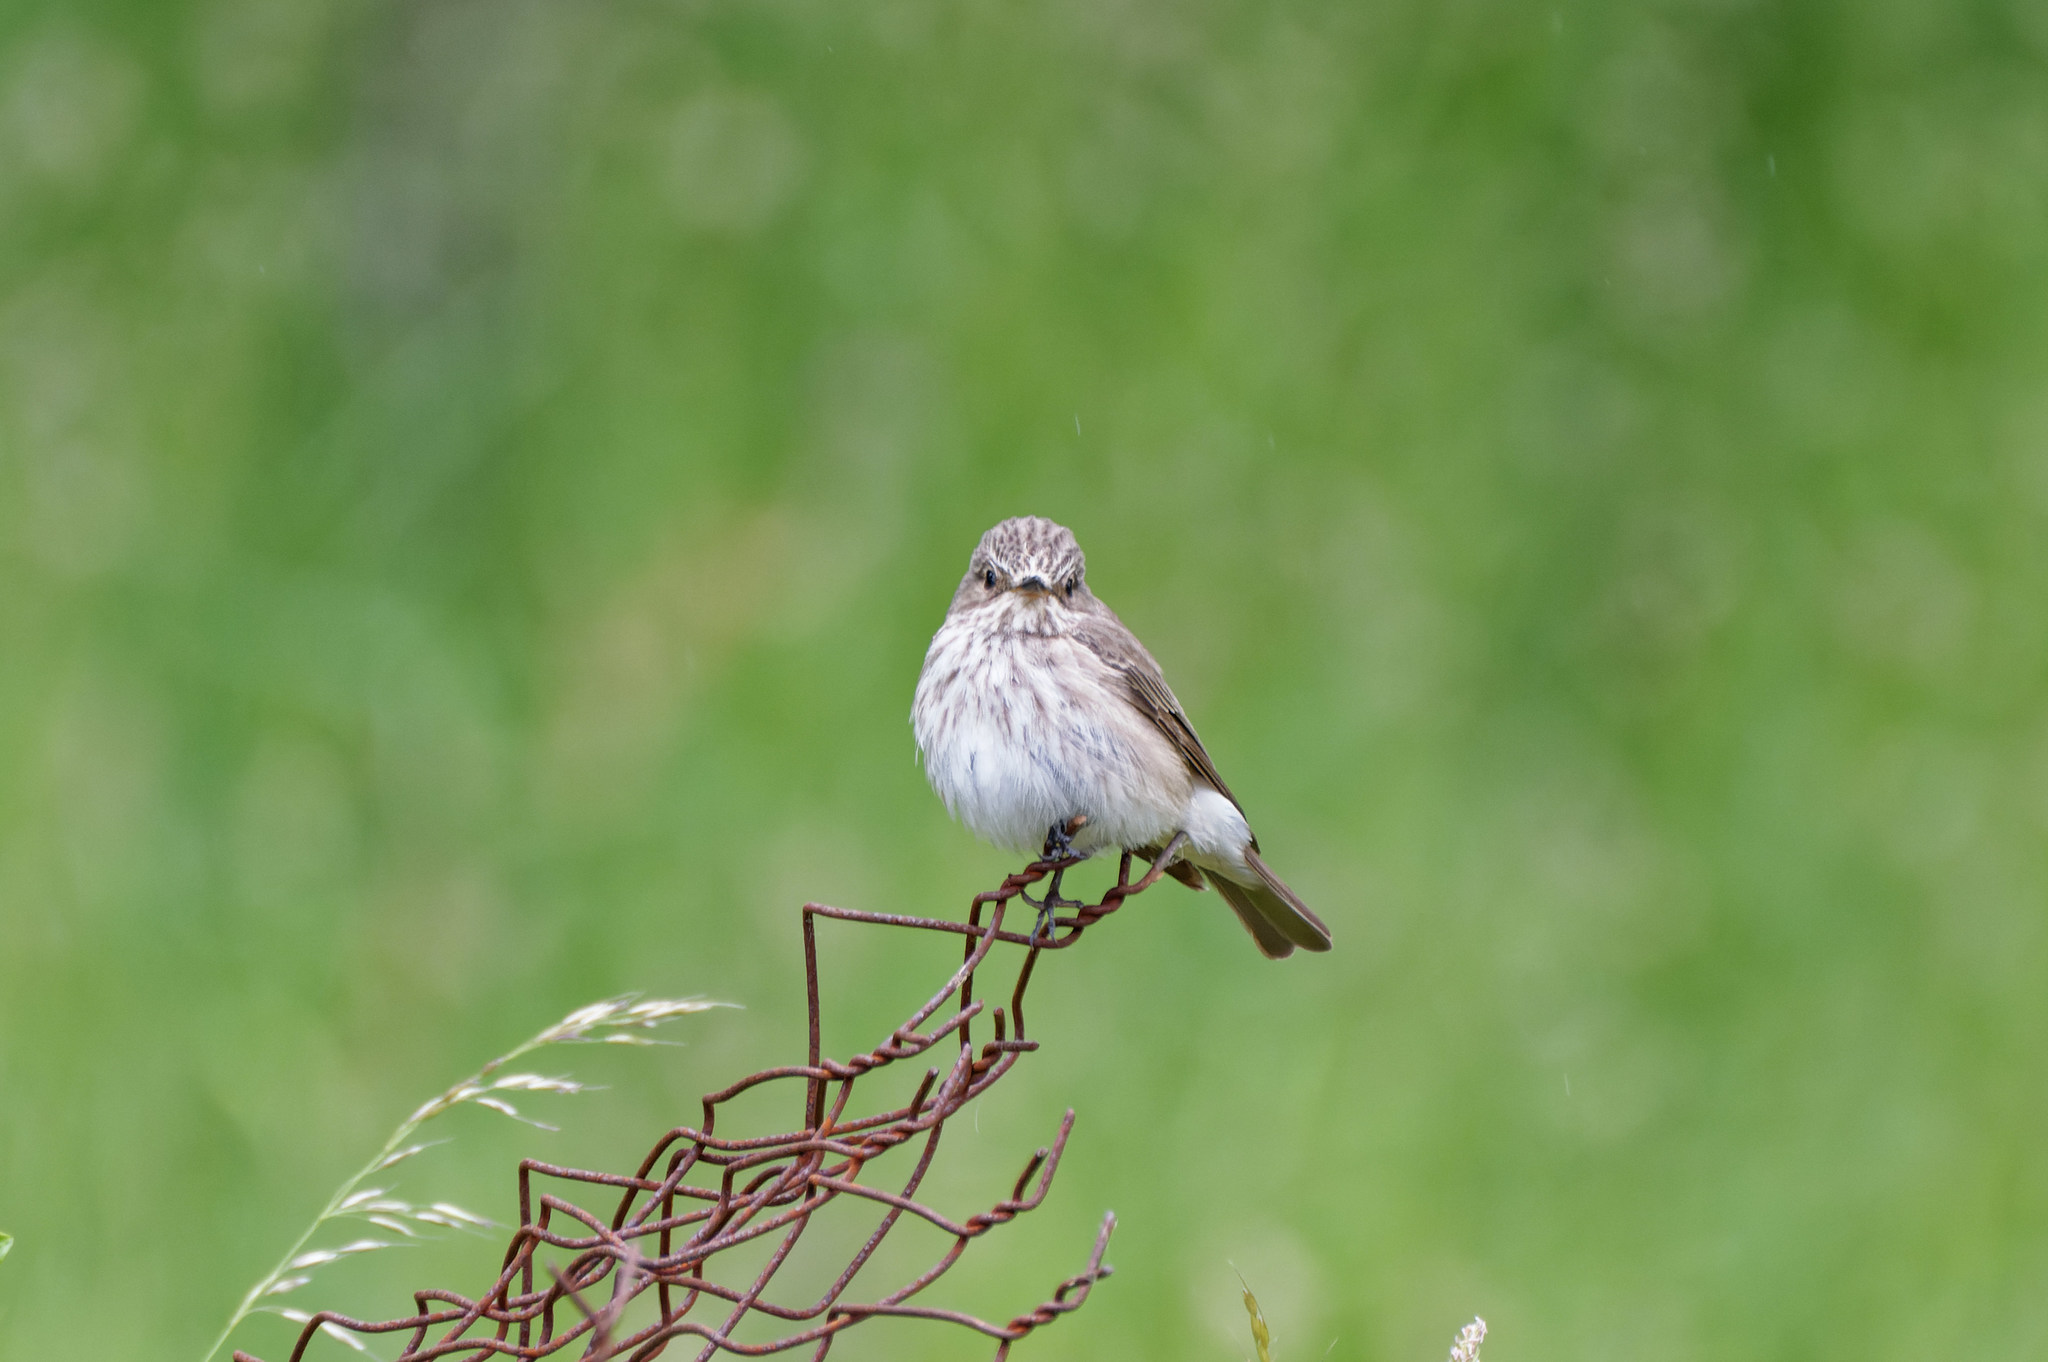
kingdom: Animalia
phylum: Chordata
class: Aves
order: Passeriformes
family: Muscicapidae
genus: Muscicapa
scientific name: Muscicapa striata
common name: Spotted flycatcher
